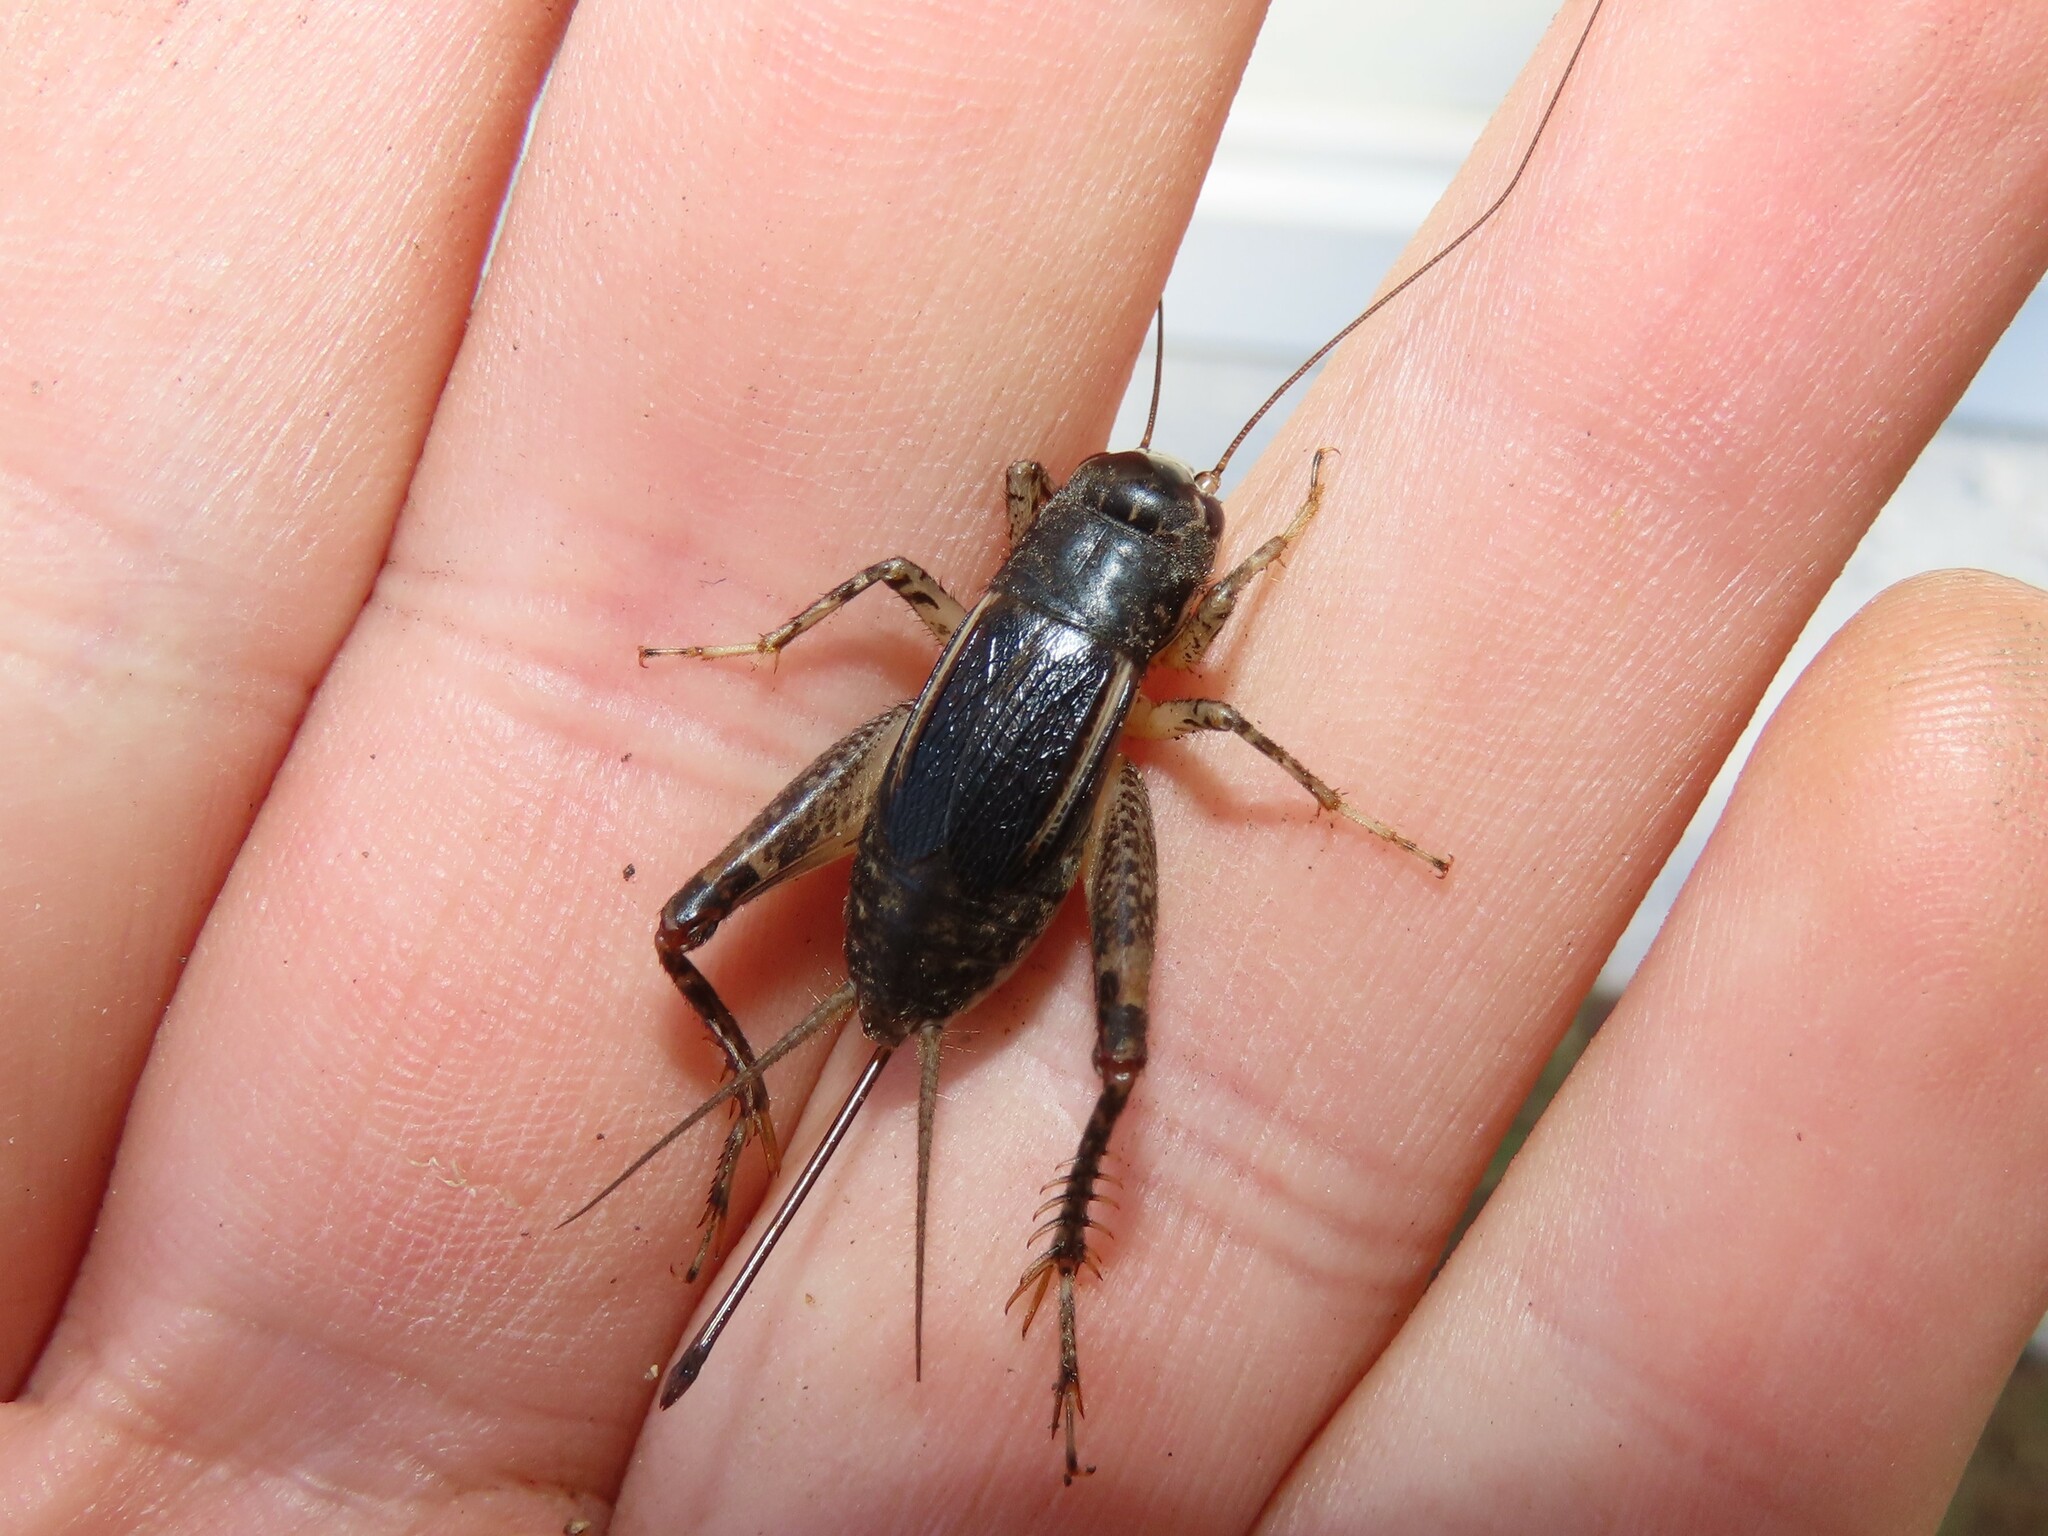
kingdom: Animalia
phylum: Arthropoda
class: Insecta
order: Orthoptera
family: Gryllidae
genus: Velarifictorus
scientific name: Velarifictorus micado
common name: Japanese burrowing cricket
